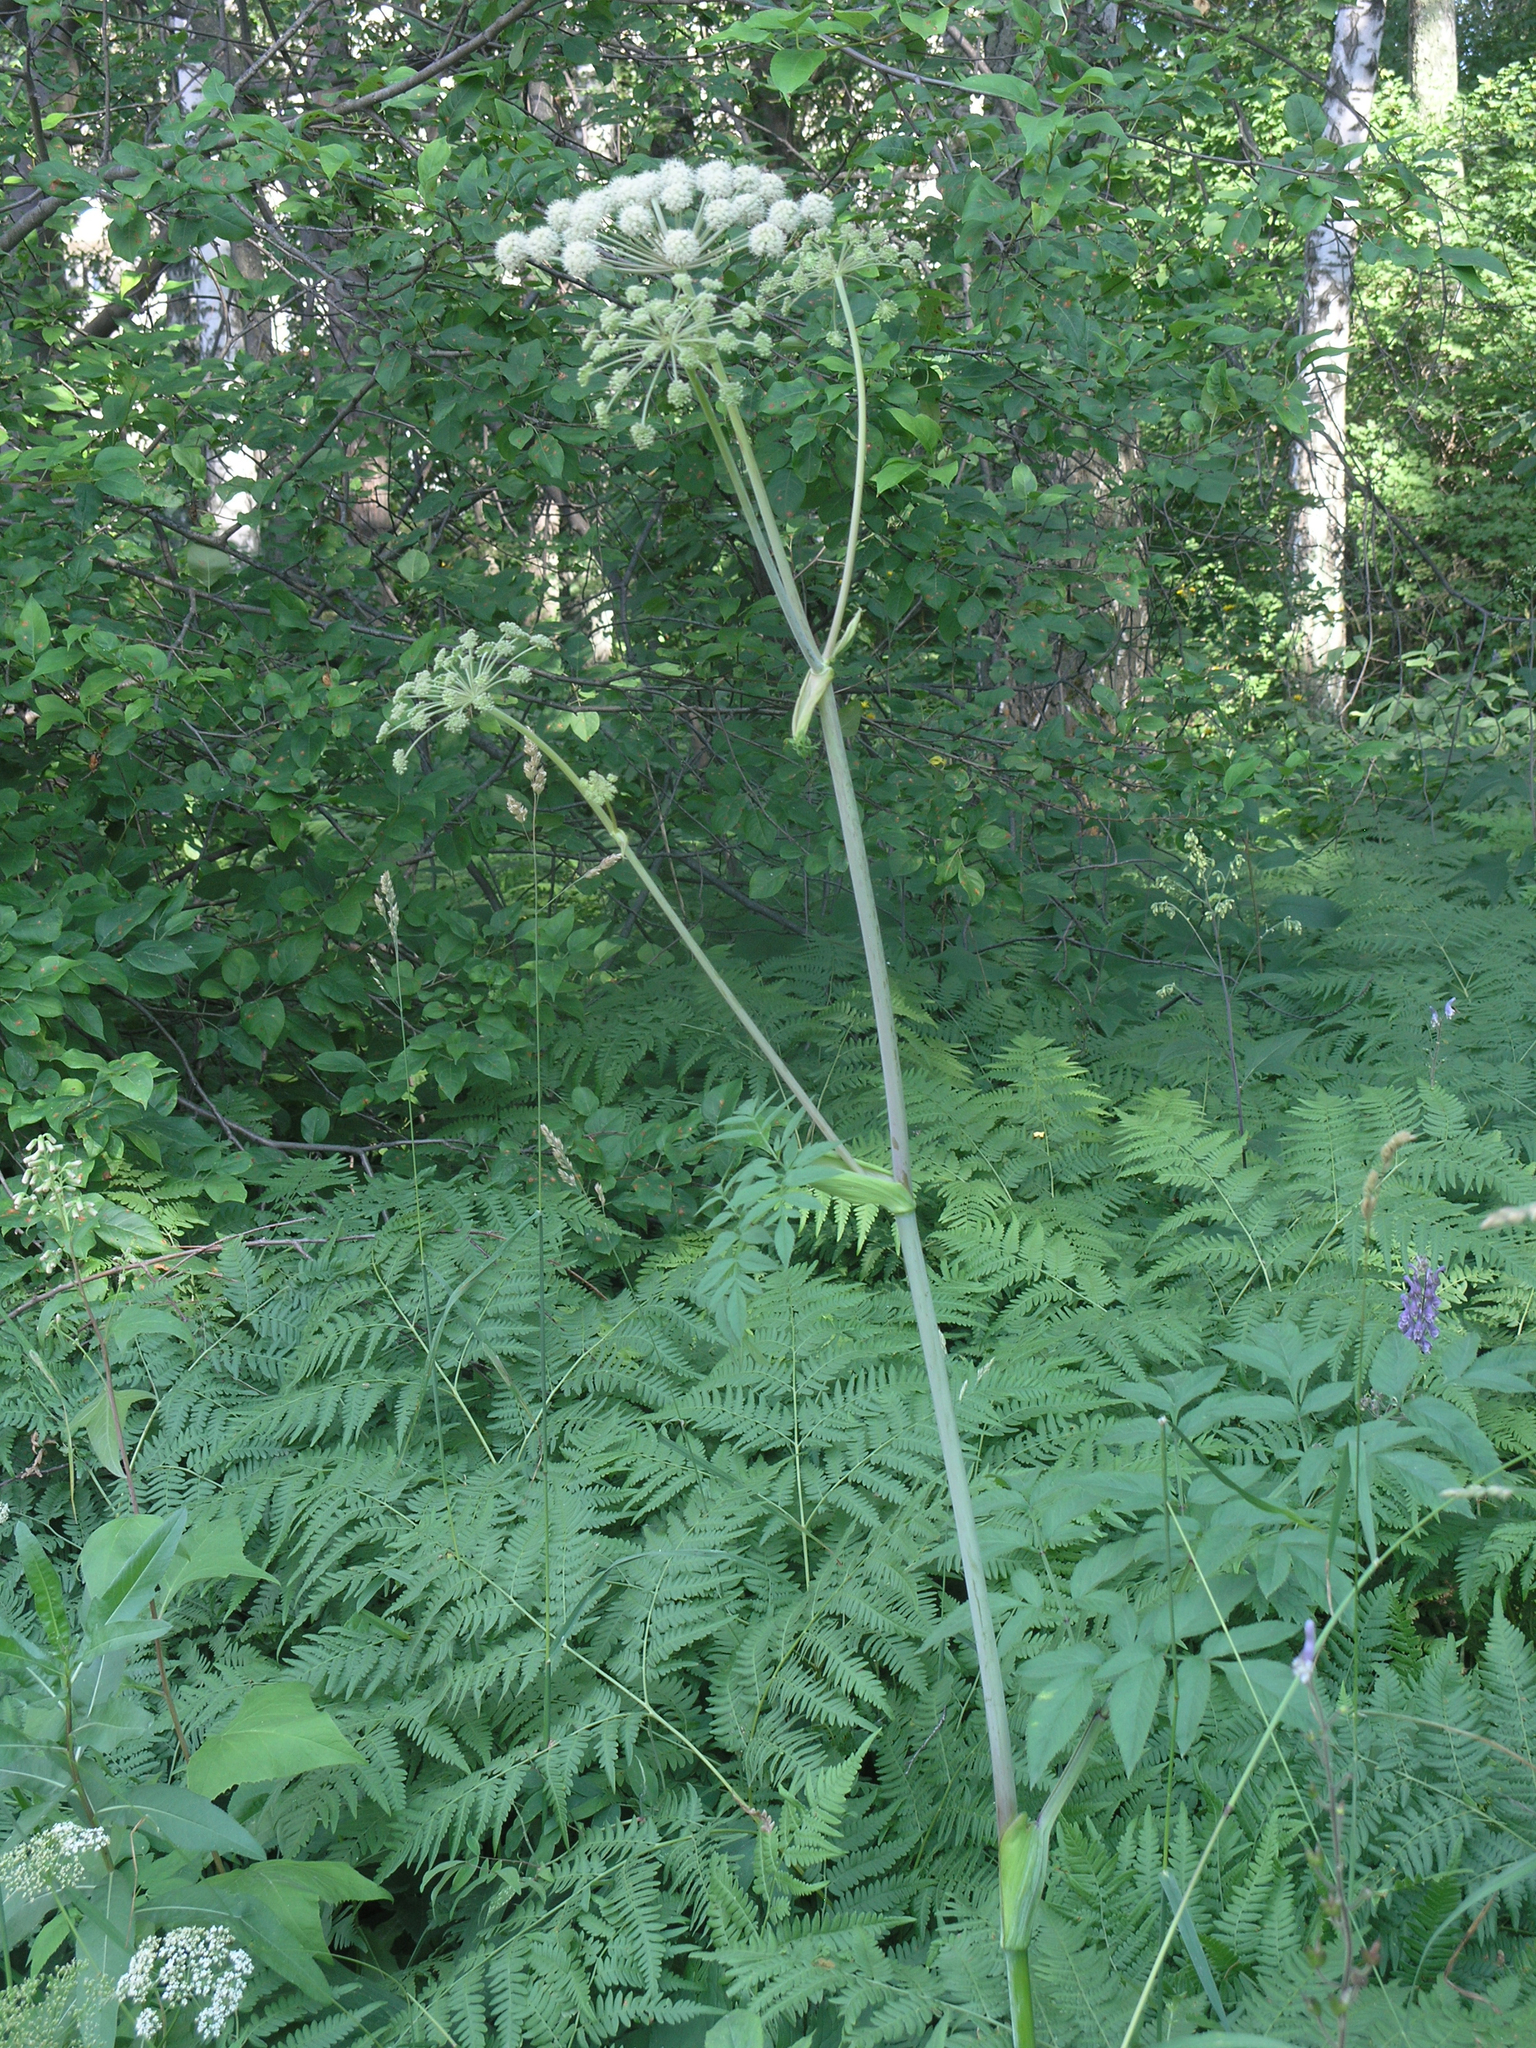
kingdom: Plantae
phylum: Tracheophyta
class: Magnoliopsida
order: Apiales
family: Apiaceae
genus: Angelica
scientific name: Angelica sylvestris
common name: Wild angelica
